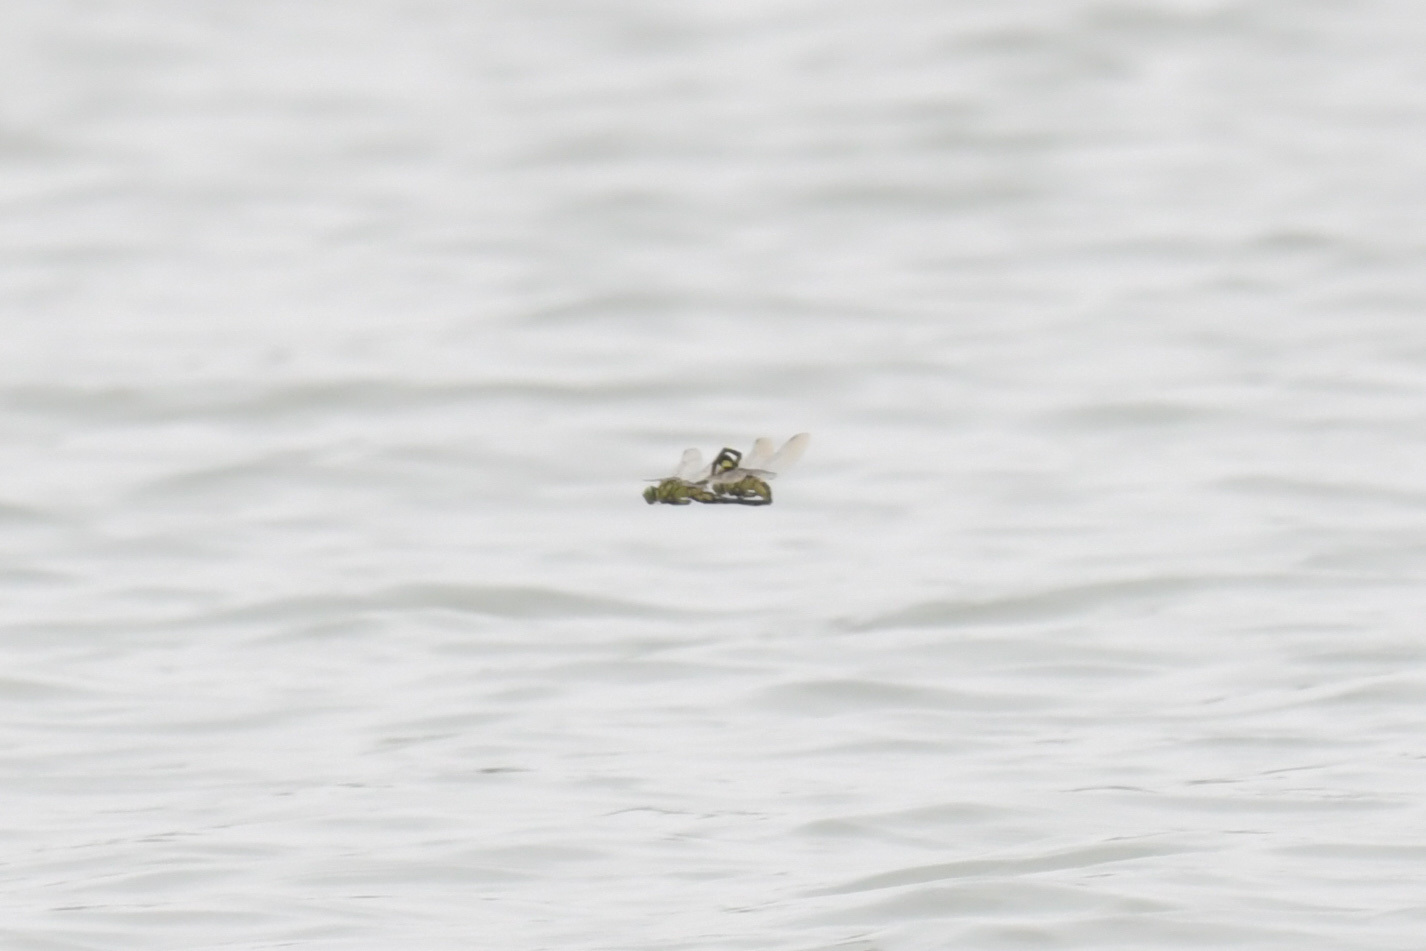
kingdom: Animalia
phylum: Arthropoda
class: Insecta
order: Odonata
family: Gomphidae
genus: Sinictinogomphus
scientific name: Sinictinogomphus clavatus
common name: Golden flangetail
